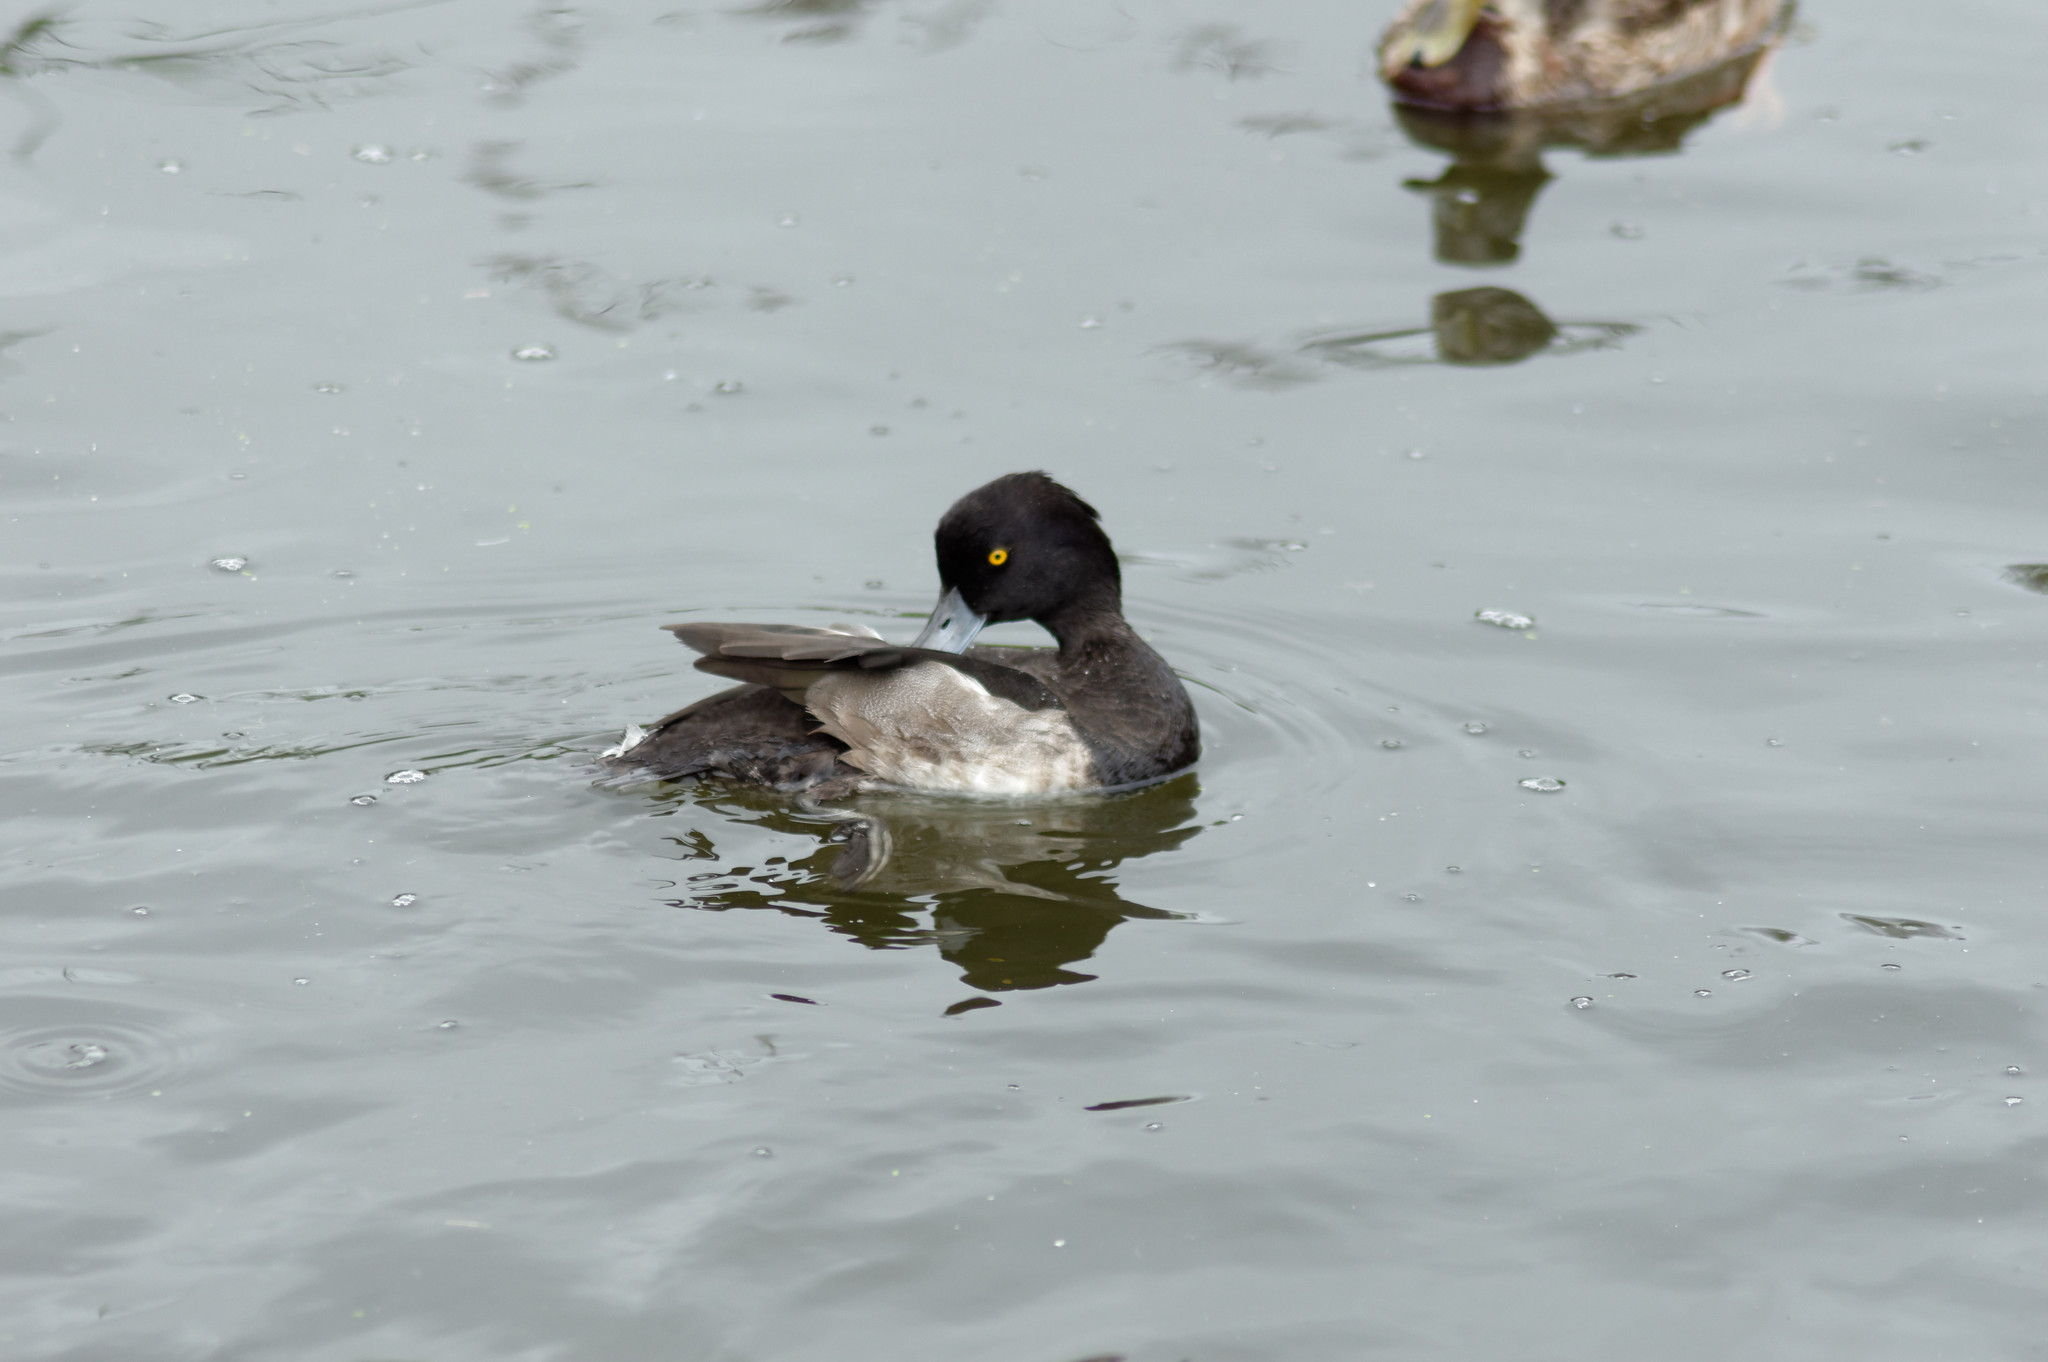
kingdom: Animalia
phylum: Chordata
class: Aves
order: Anseriformes
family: Anatidae
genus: Aythya
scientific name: Aythya fuligula
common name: Tufted duck
